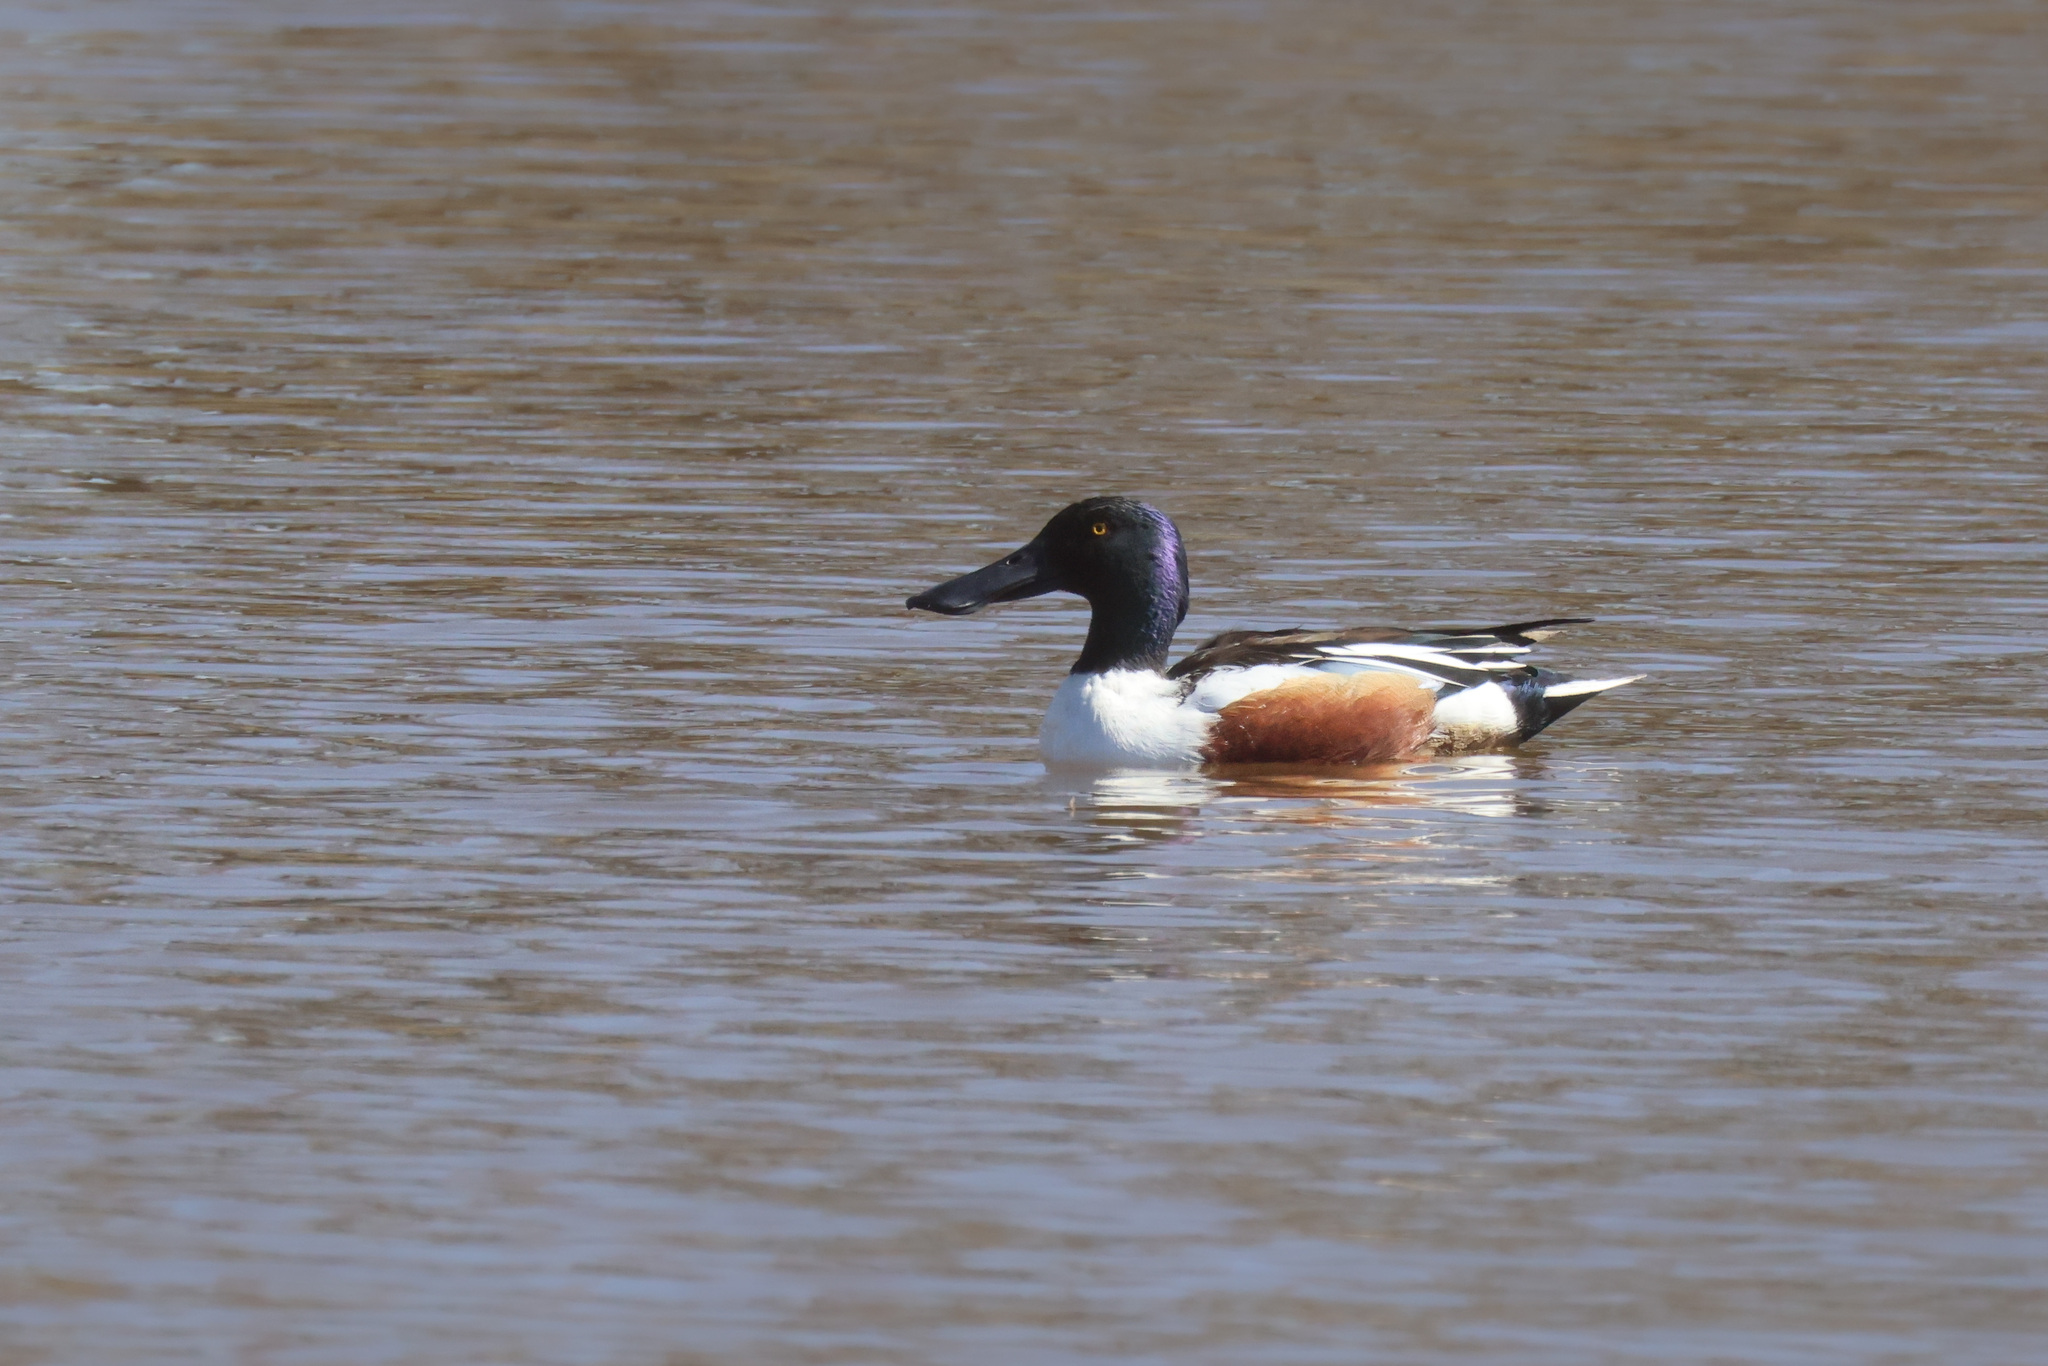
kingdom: Animalia
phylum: Chordata
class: Aves
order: Anseriformes
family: Anatidae
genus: Spatula
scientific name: Spatula clypeata
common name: Northern shoveler
